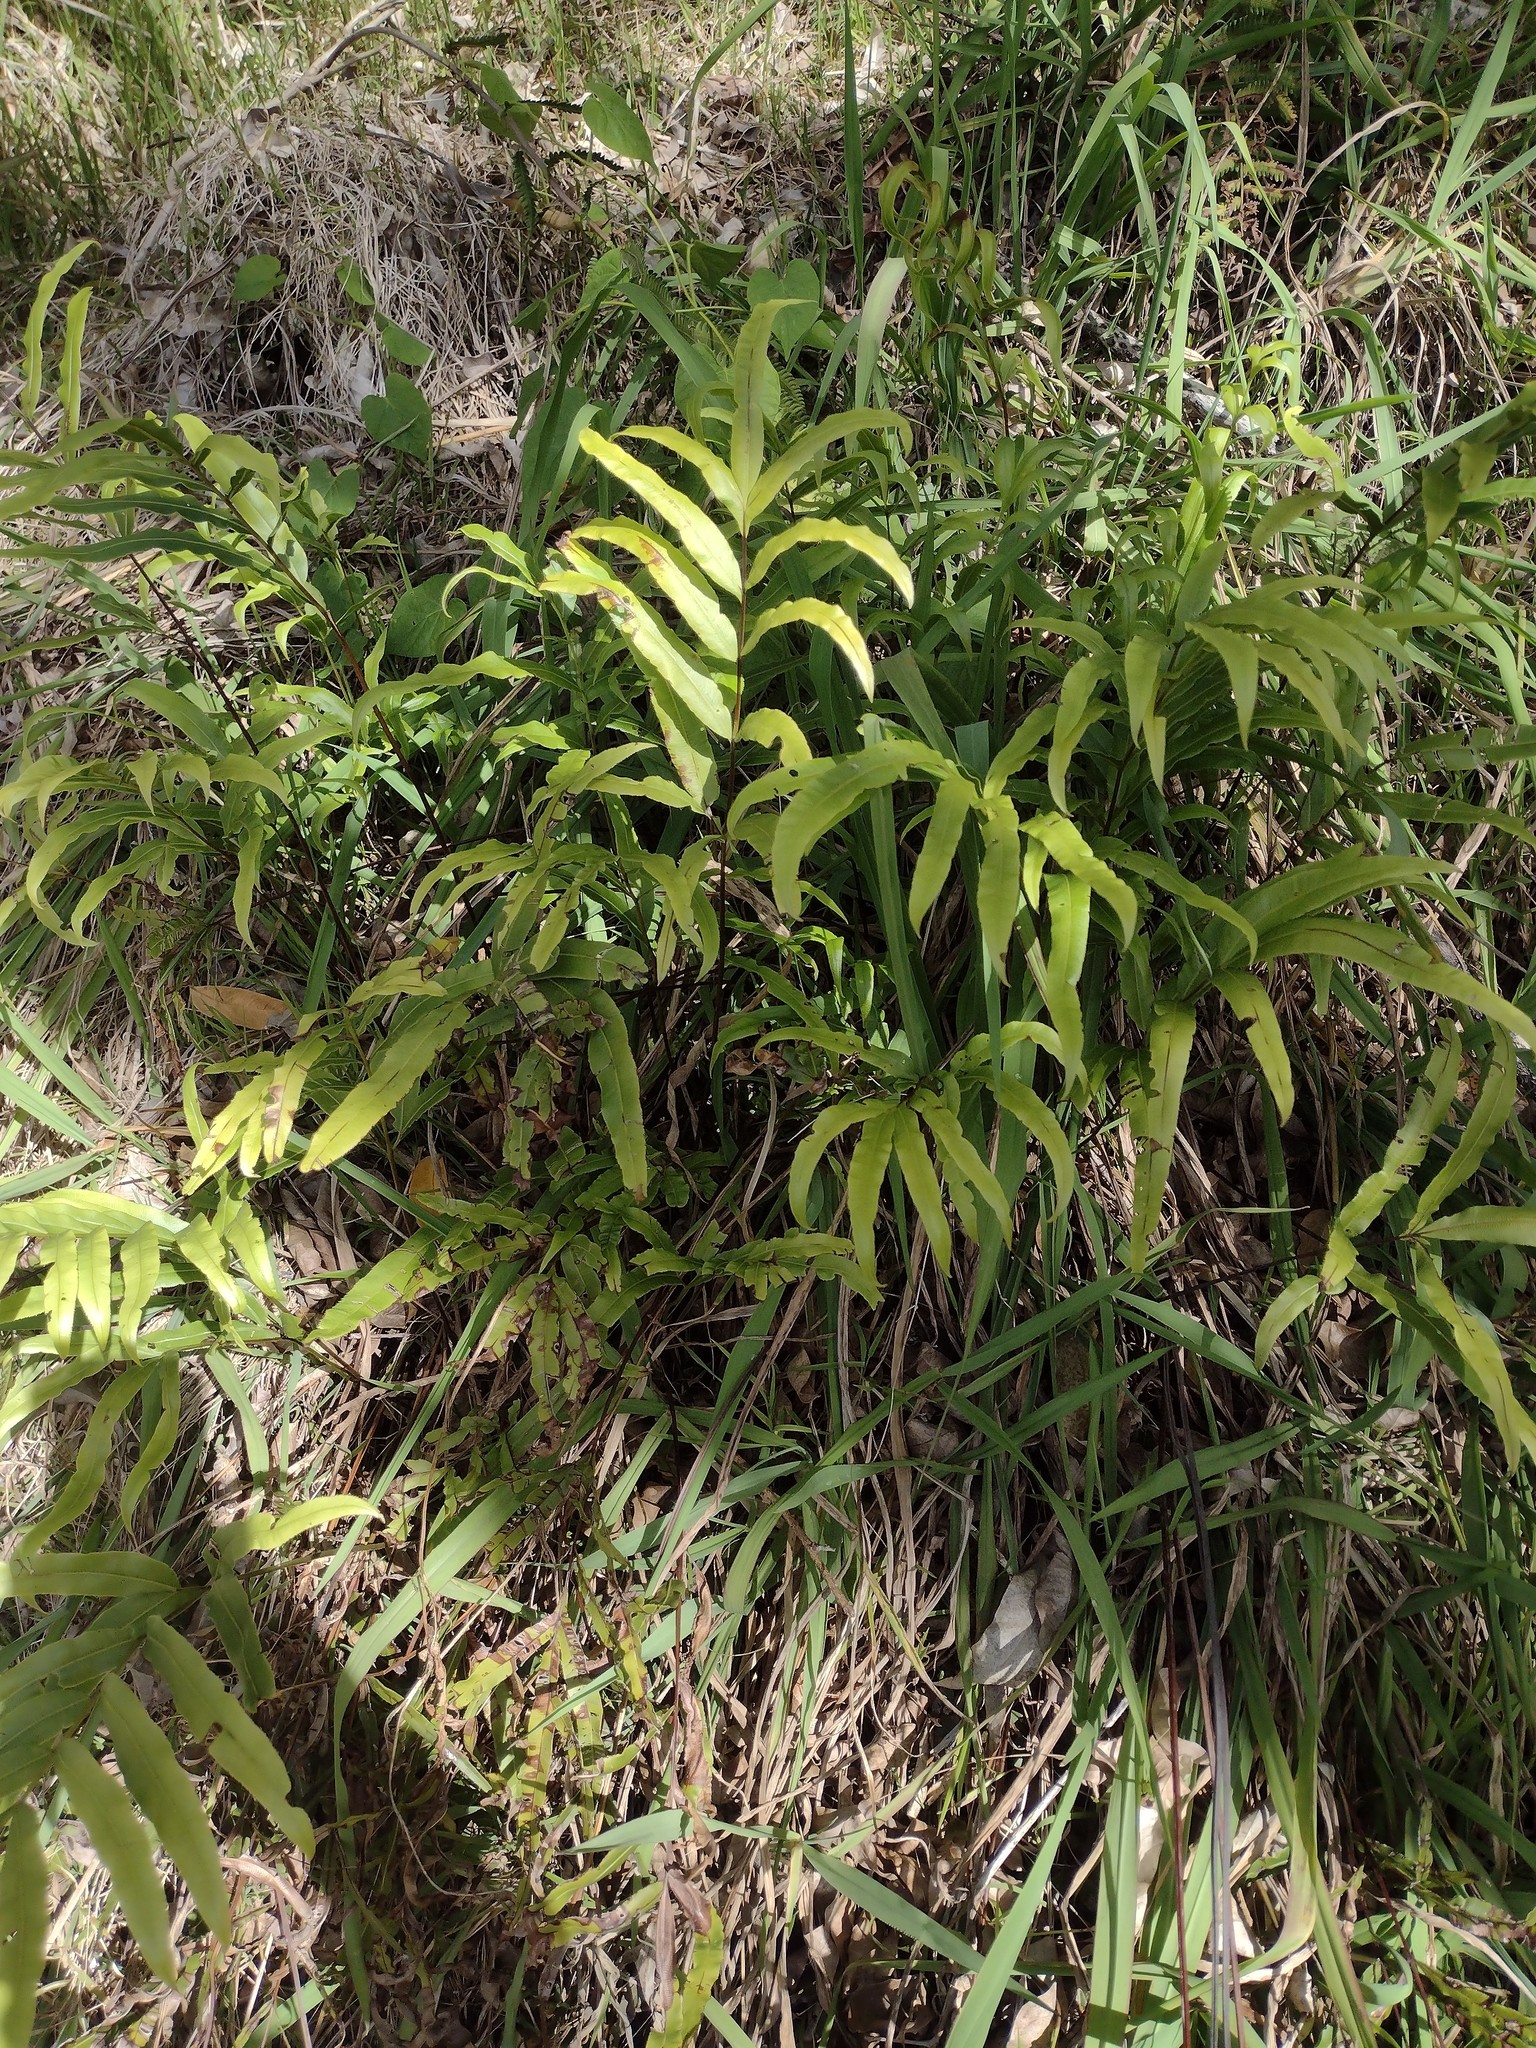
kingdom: Plantae
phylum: Tracheophyta
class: Polypodiopsida
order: Polypodiales
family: Pteridaceae
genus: Pteris
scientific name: Pteris cretica
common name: Ribbon fern
